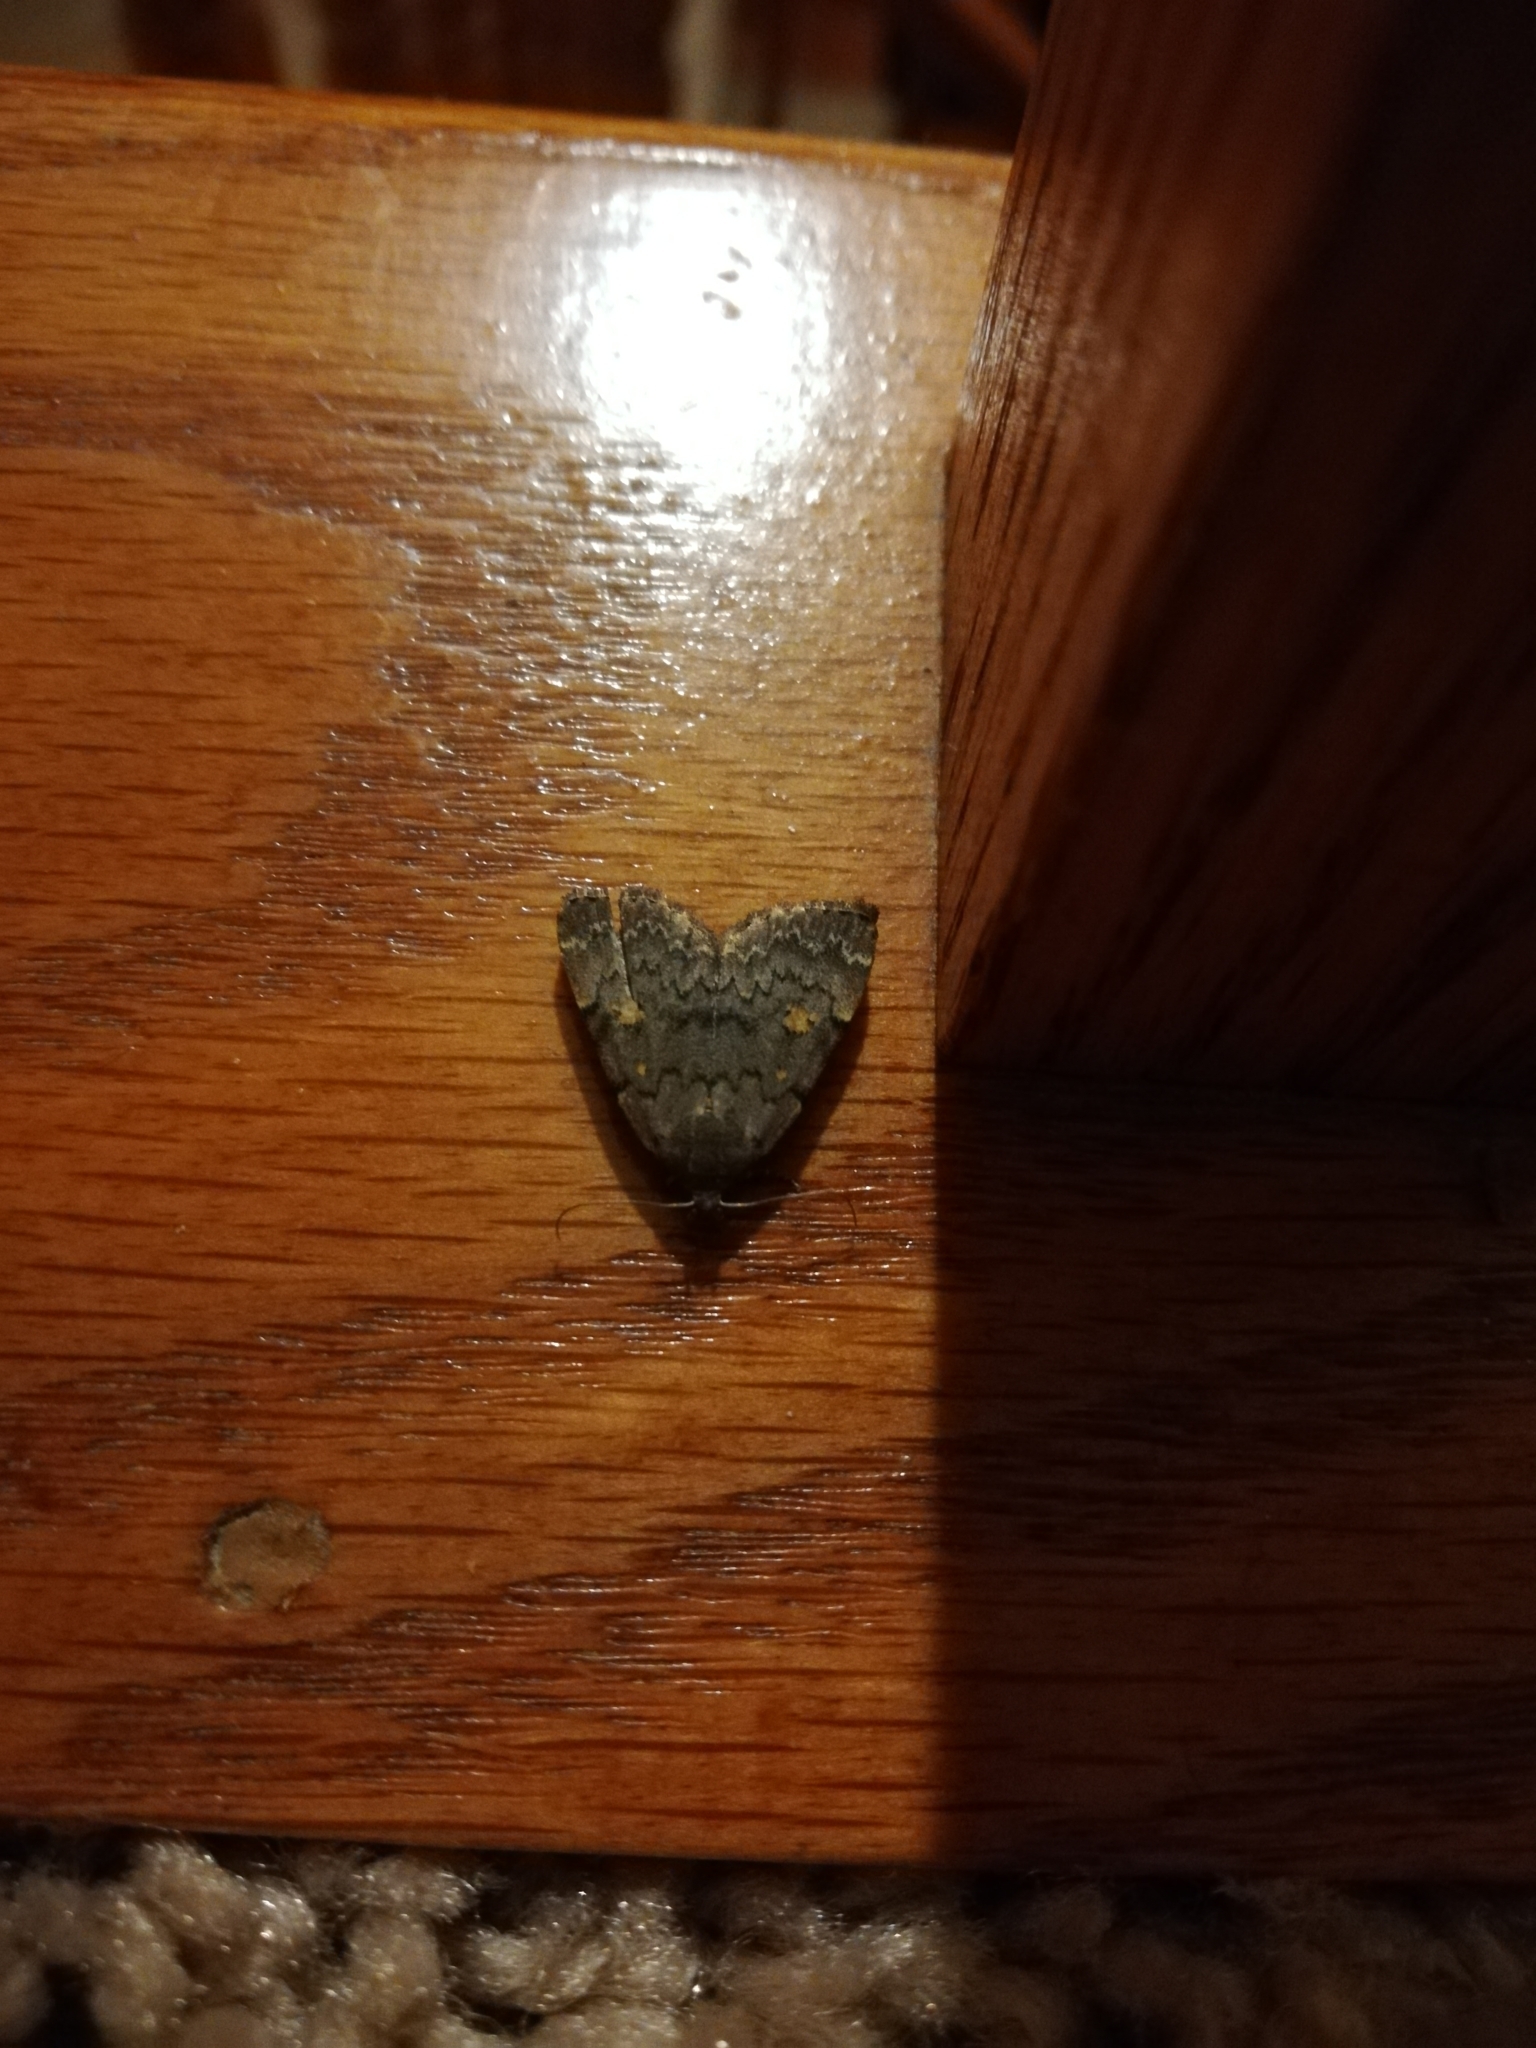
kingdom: Animalia
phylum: Arthropoda
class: Insecta
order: Lepidoptera
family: Erebidae
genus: Idia
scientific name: Idia aemula
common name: Common idia moth
